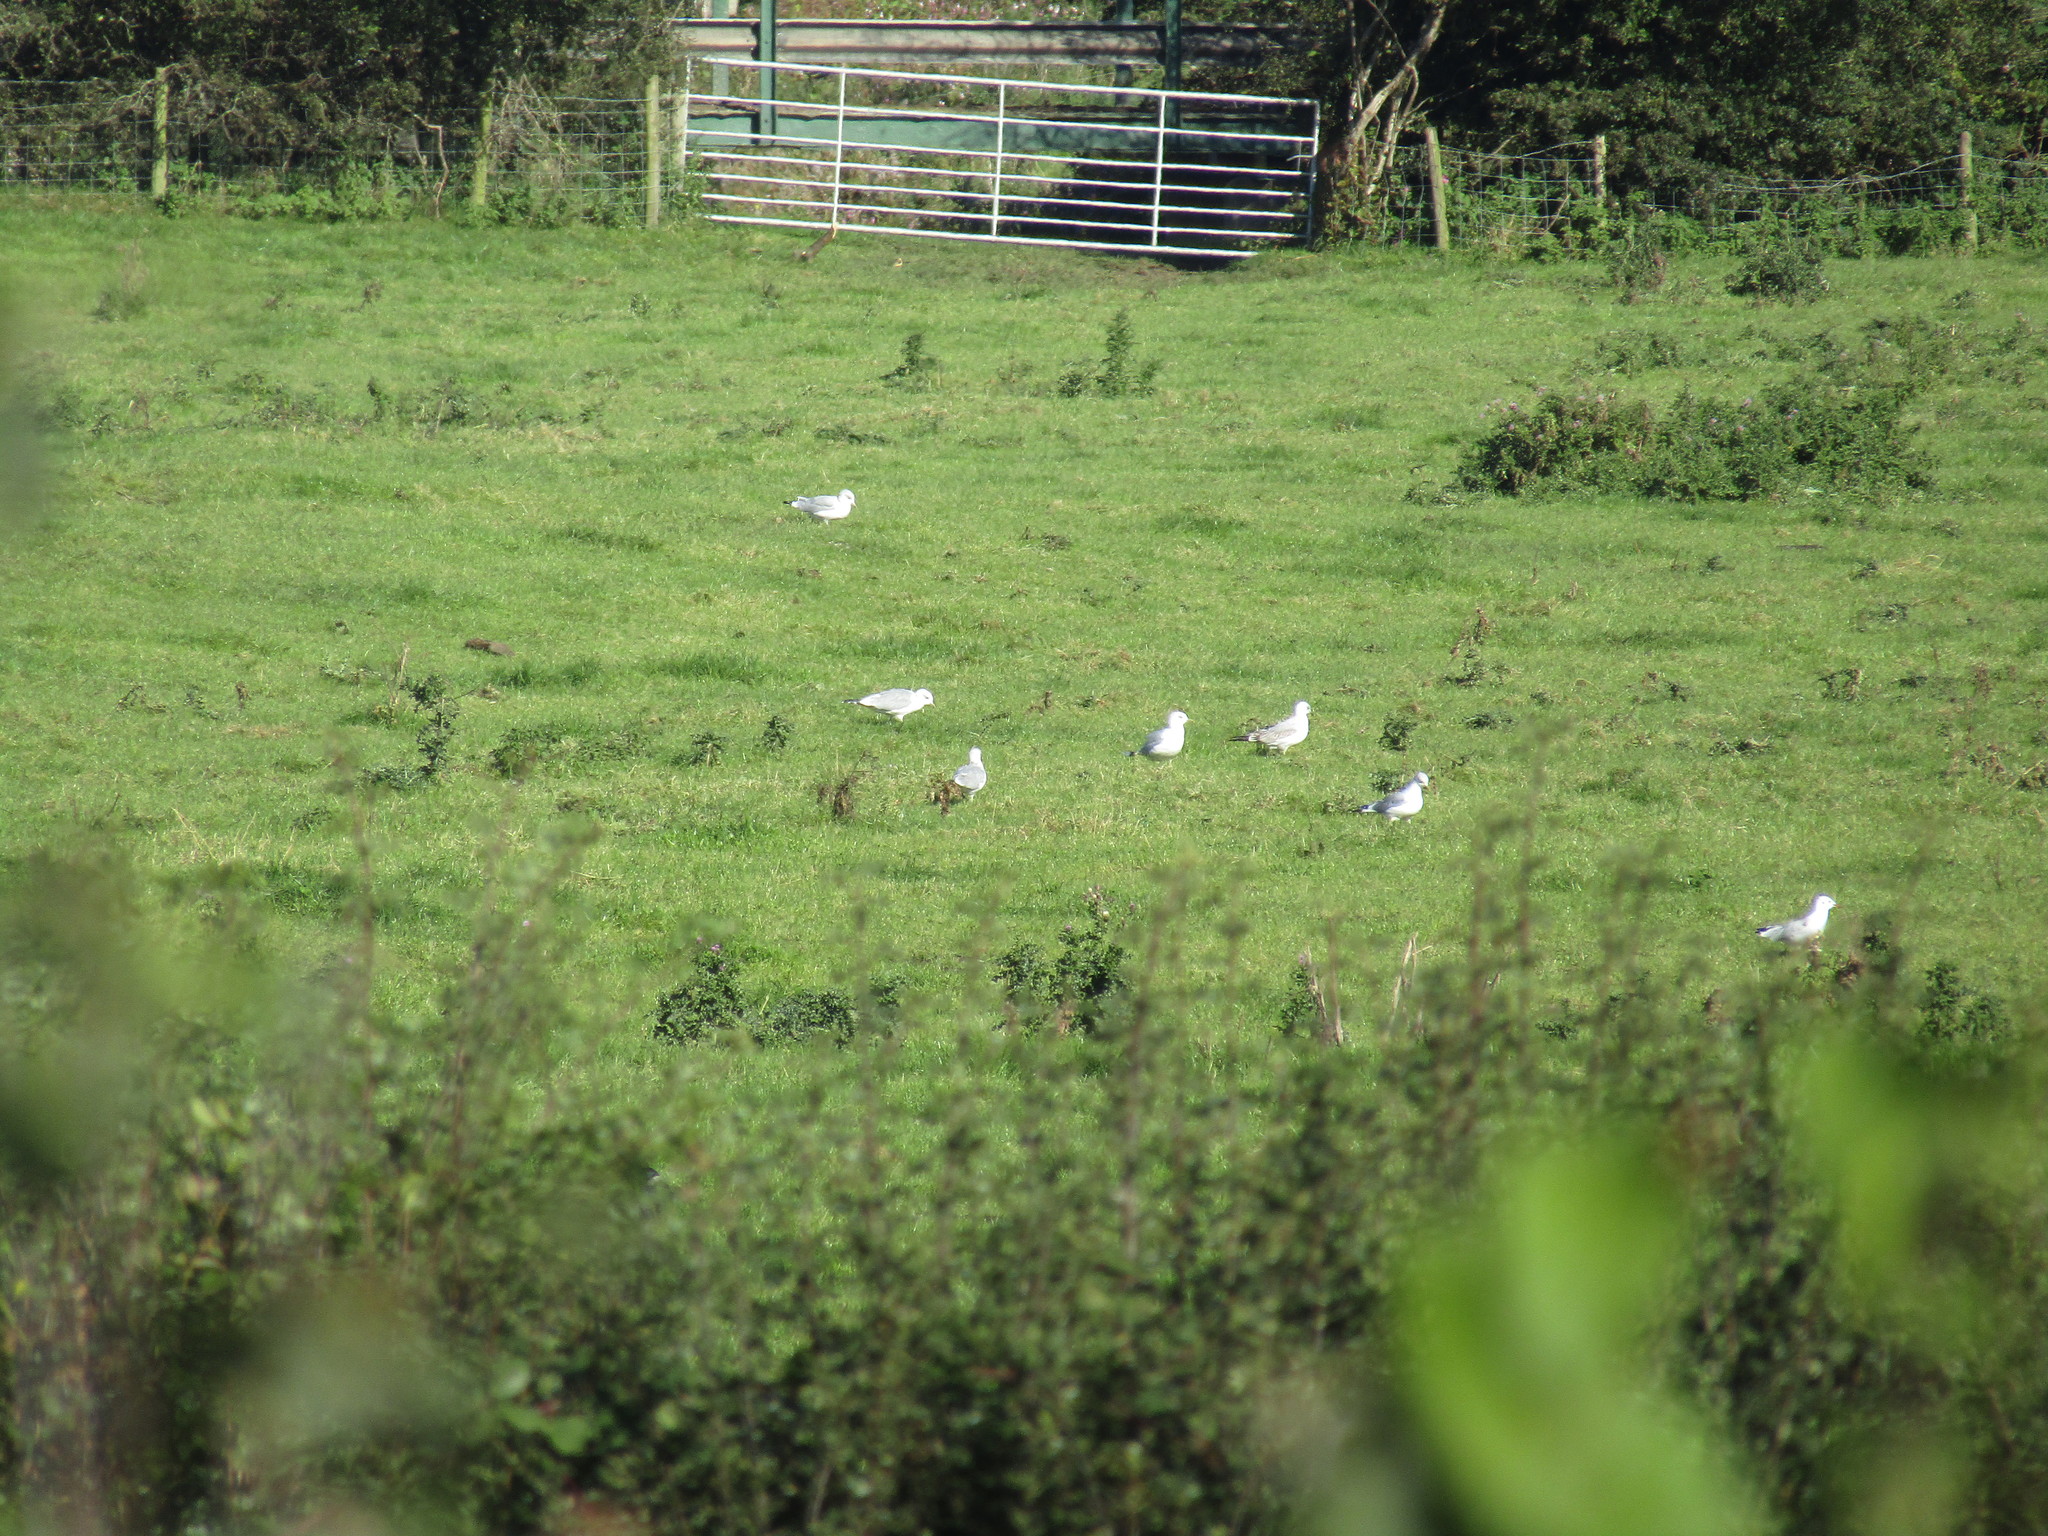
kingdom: Animalia
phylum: Chordata
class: Aves
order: Charadriiformes
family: Laridae
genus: Larus
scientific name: Larus canus
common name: Mew gull
